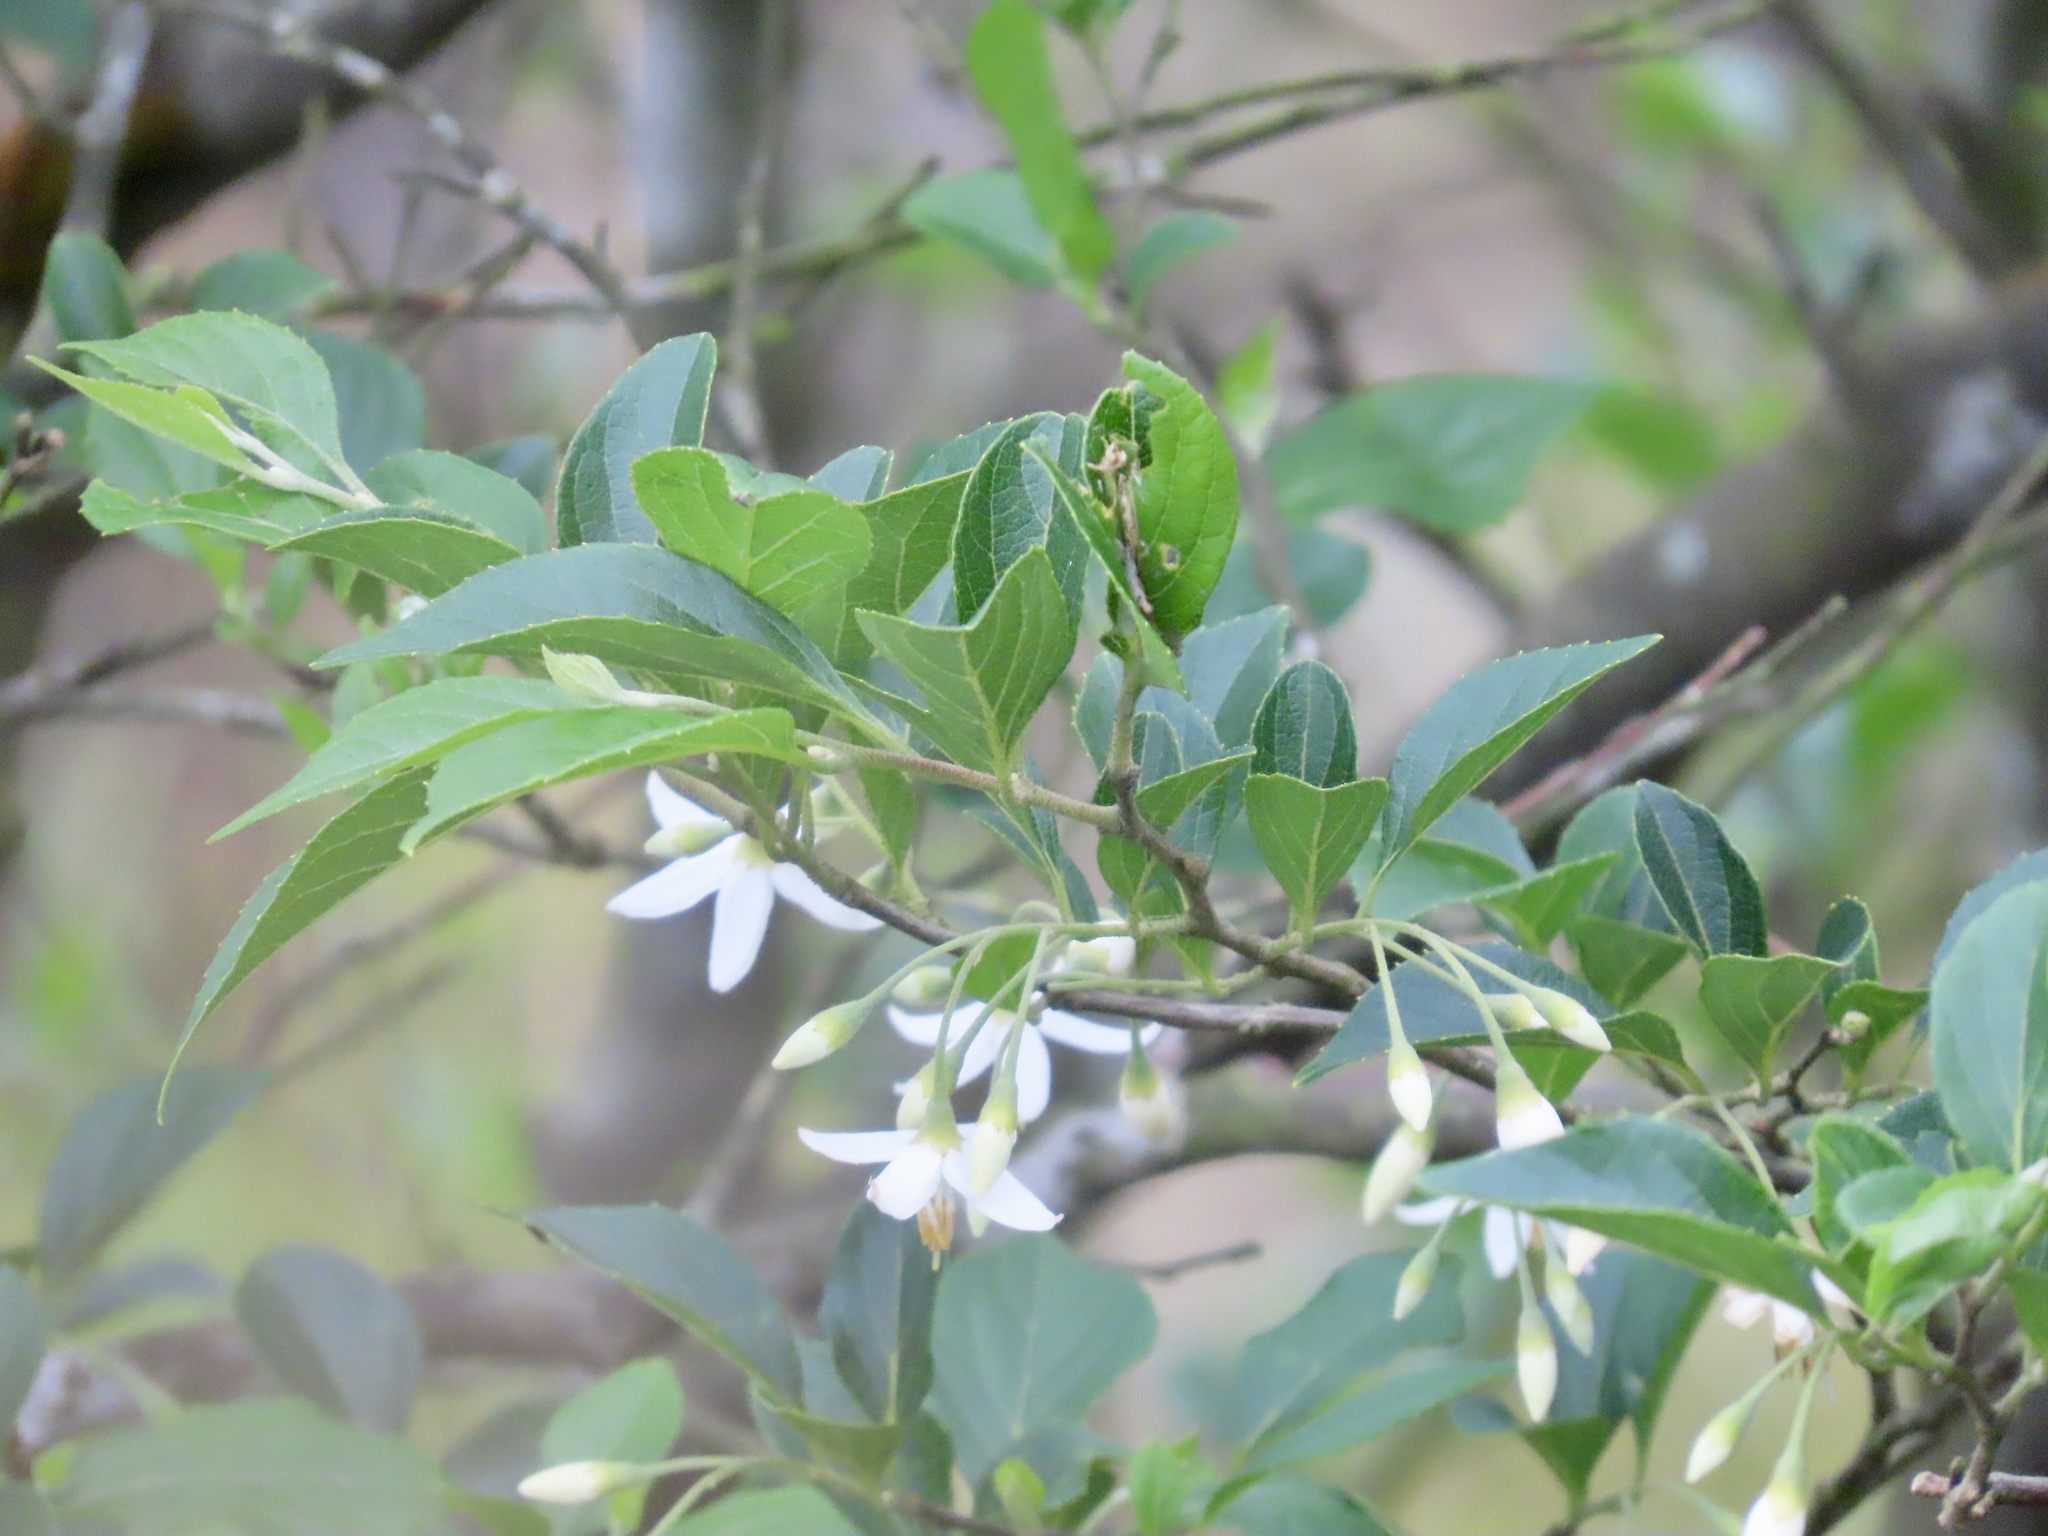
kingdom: Plantae
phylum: Tracheophyta
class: Magnoliopsida
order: Ericales
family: Styracaceae
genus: Styrax
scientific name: Styrax formosanus
